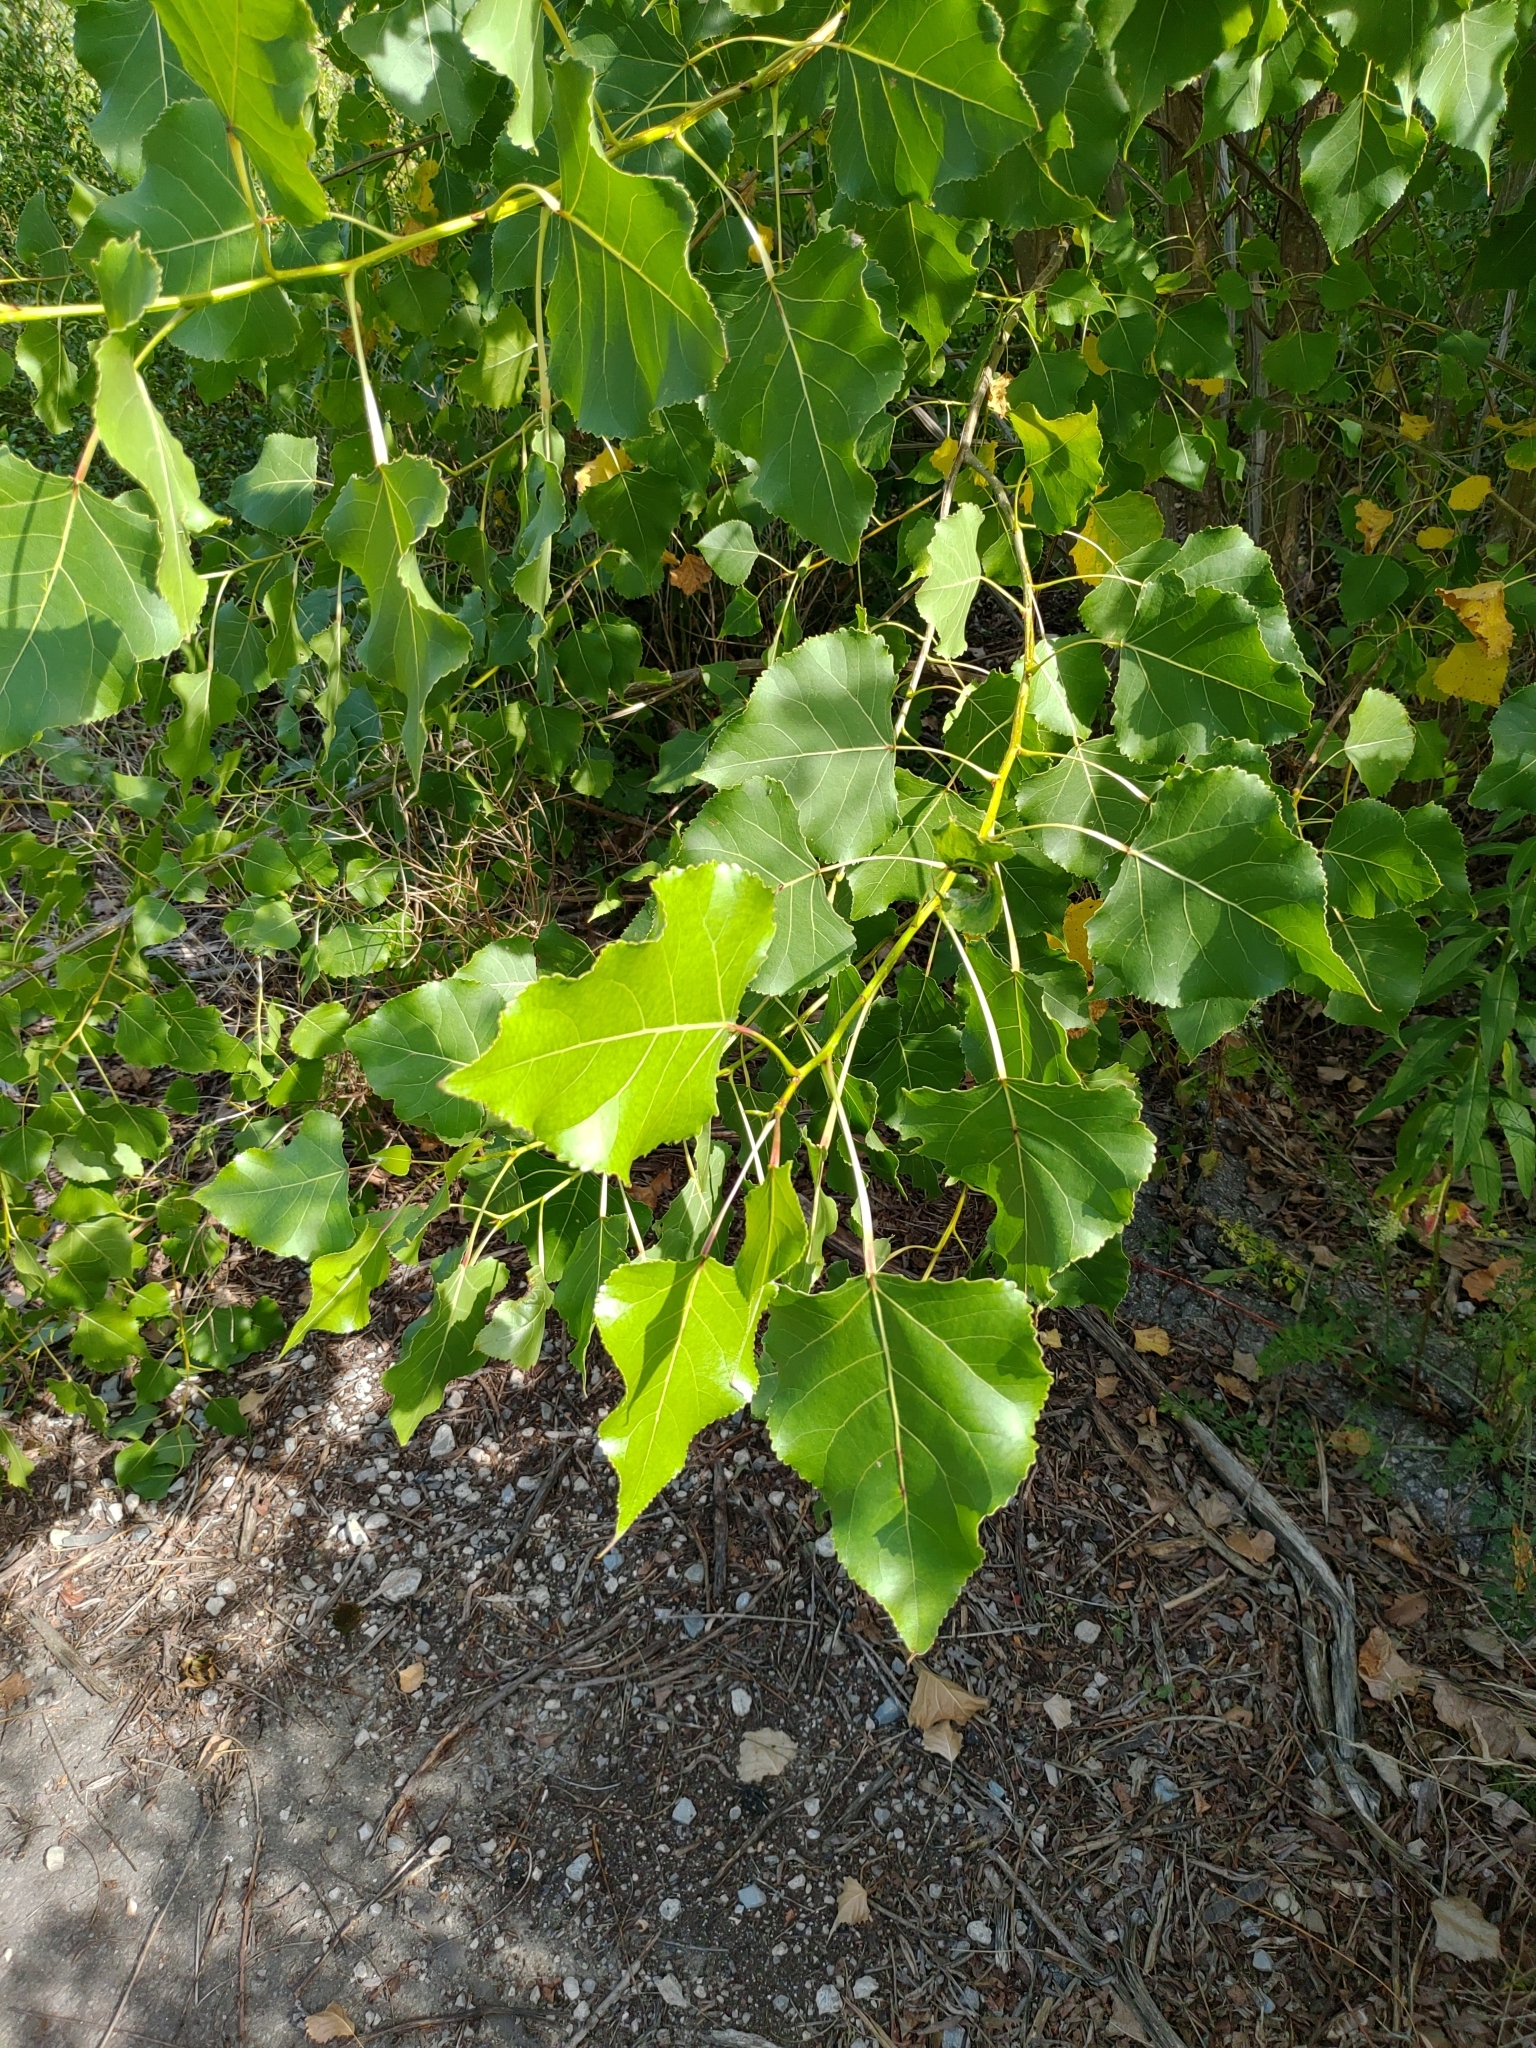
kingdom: Plantae
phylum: Tracheophyta
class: Magnoliopsida
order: Malpighiales
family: Salicaceae
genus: Populus
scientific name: Populus deltoides
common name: Eastern cottonwood
